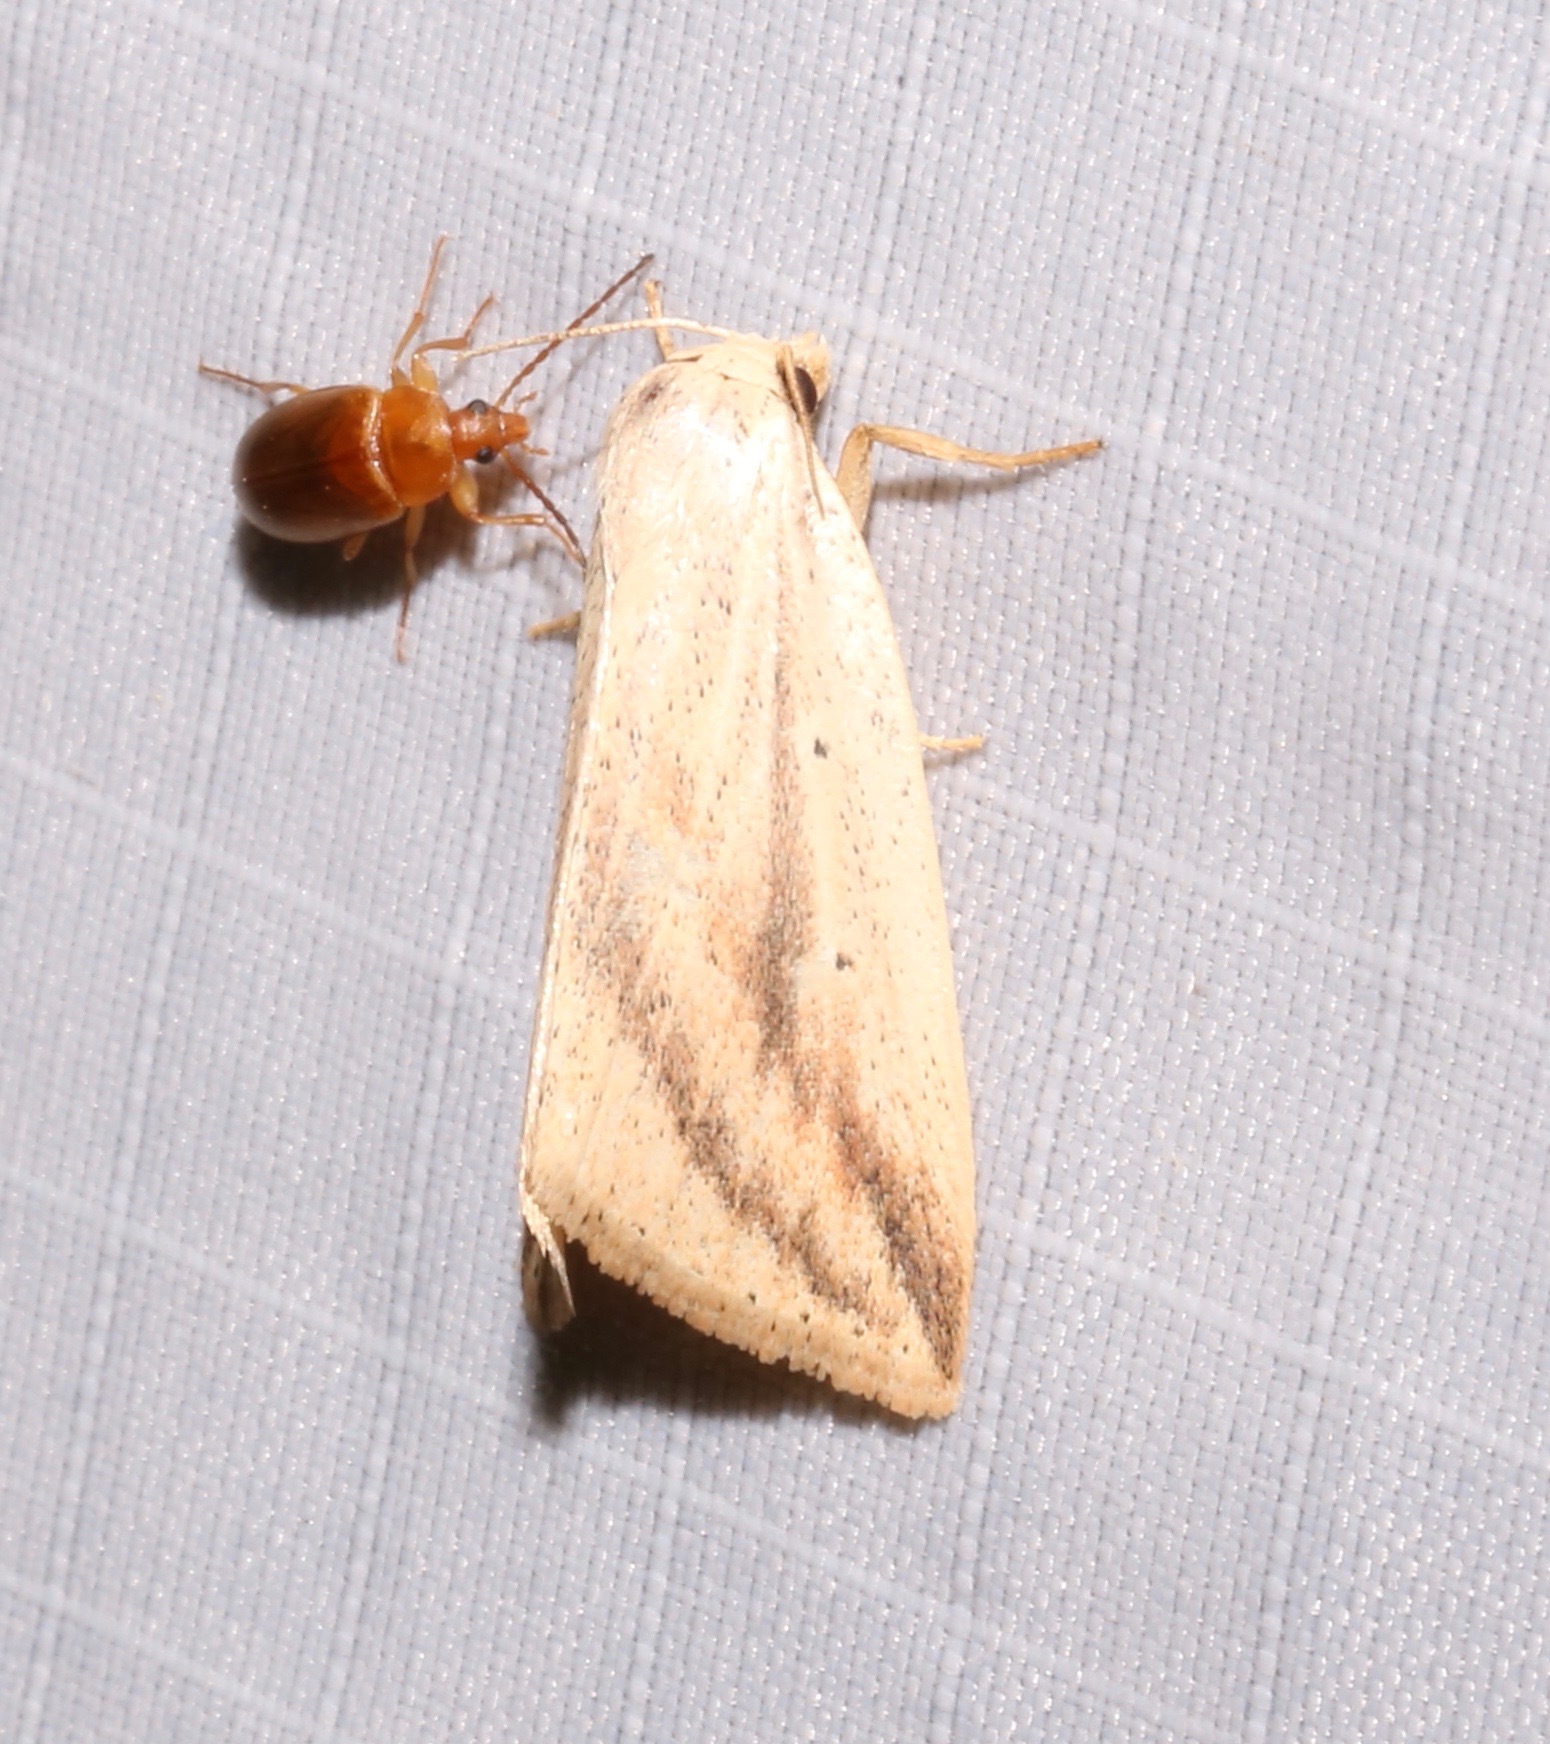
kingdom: Animalia
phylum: Arthropoda
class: Insecta
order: Lepidoptera
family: Noctuidae
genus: Amolita
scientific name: Amolita obliqua
